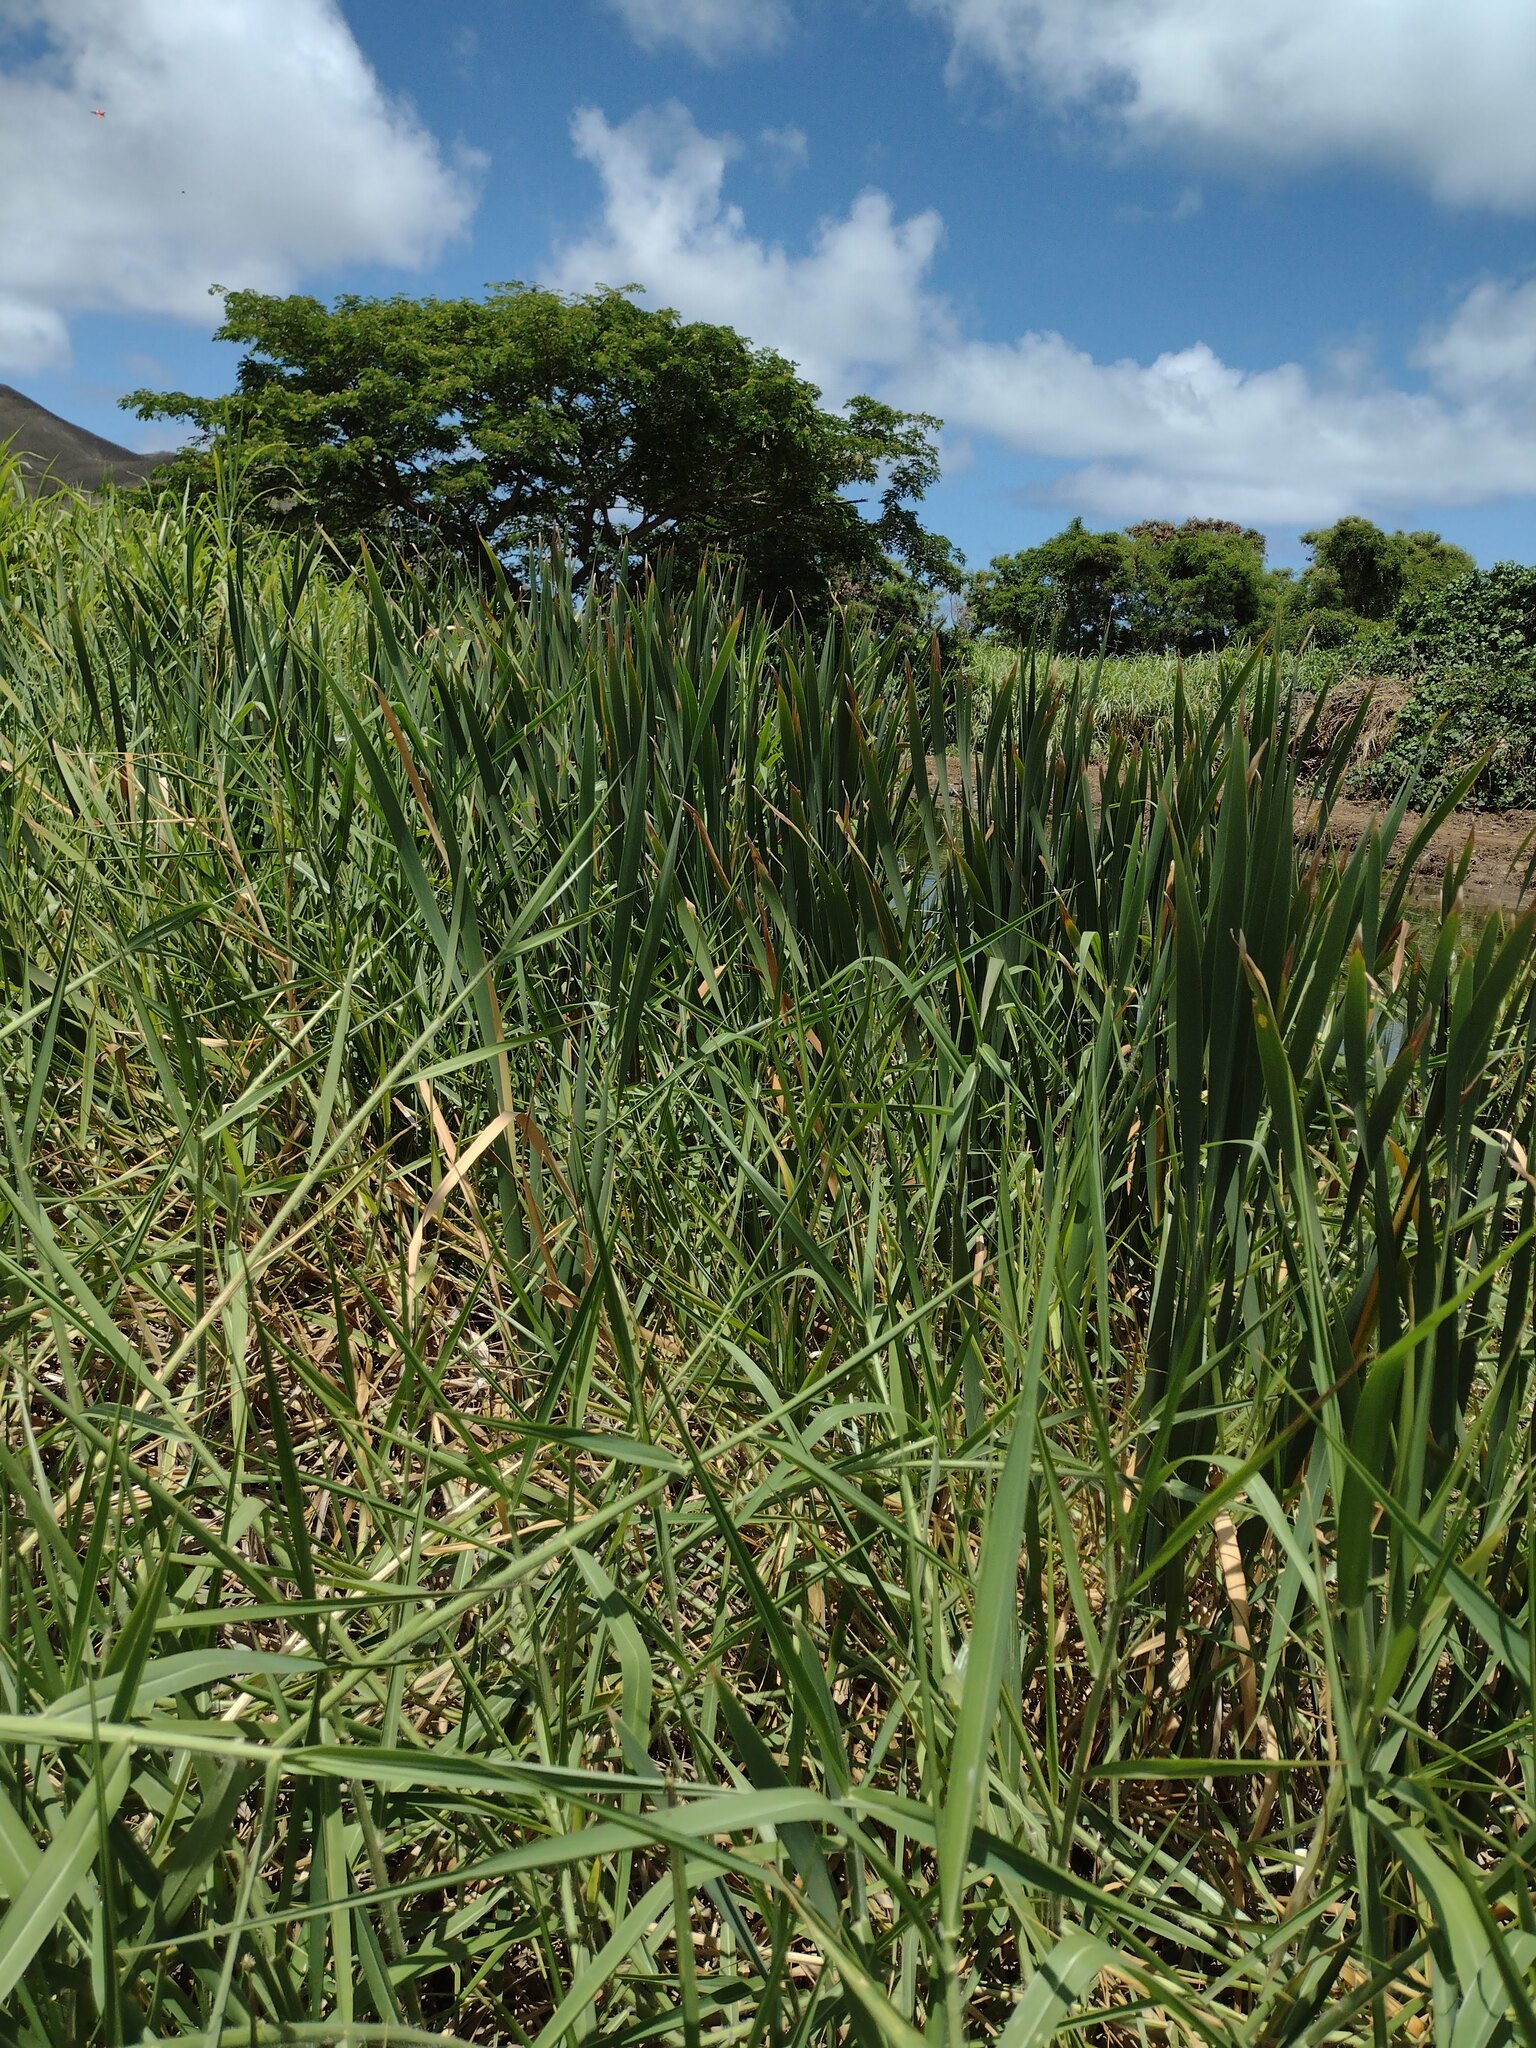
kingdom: Plantae
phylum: Tracheophyta
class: Liliopsida
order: Poales
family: Typhaceae
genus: Typha
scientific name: Typha latifolia
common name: Broadleaf cattail
